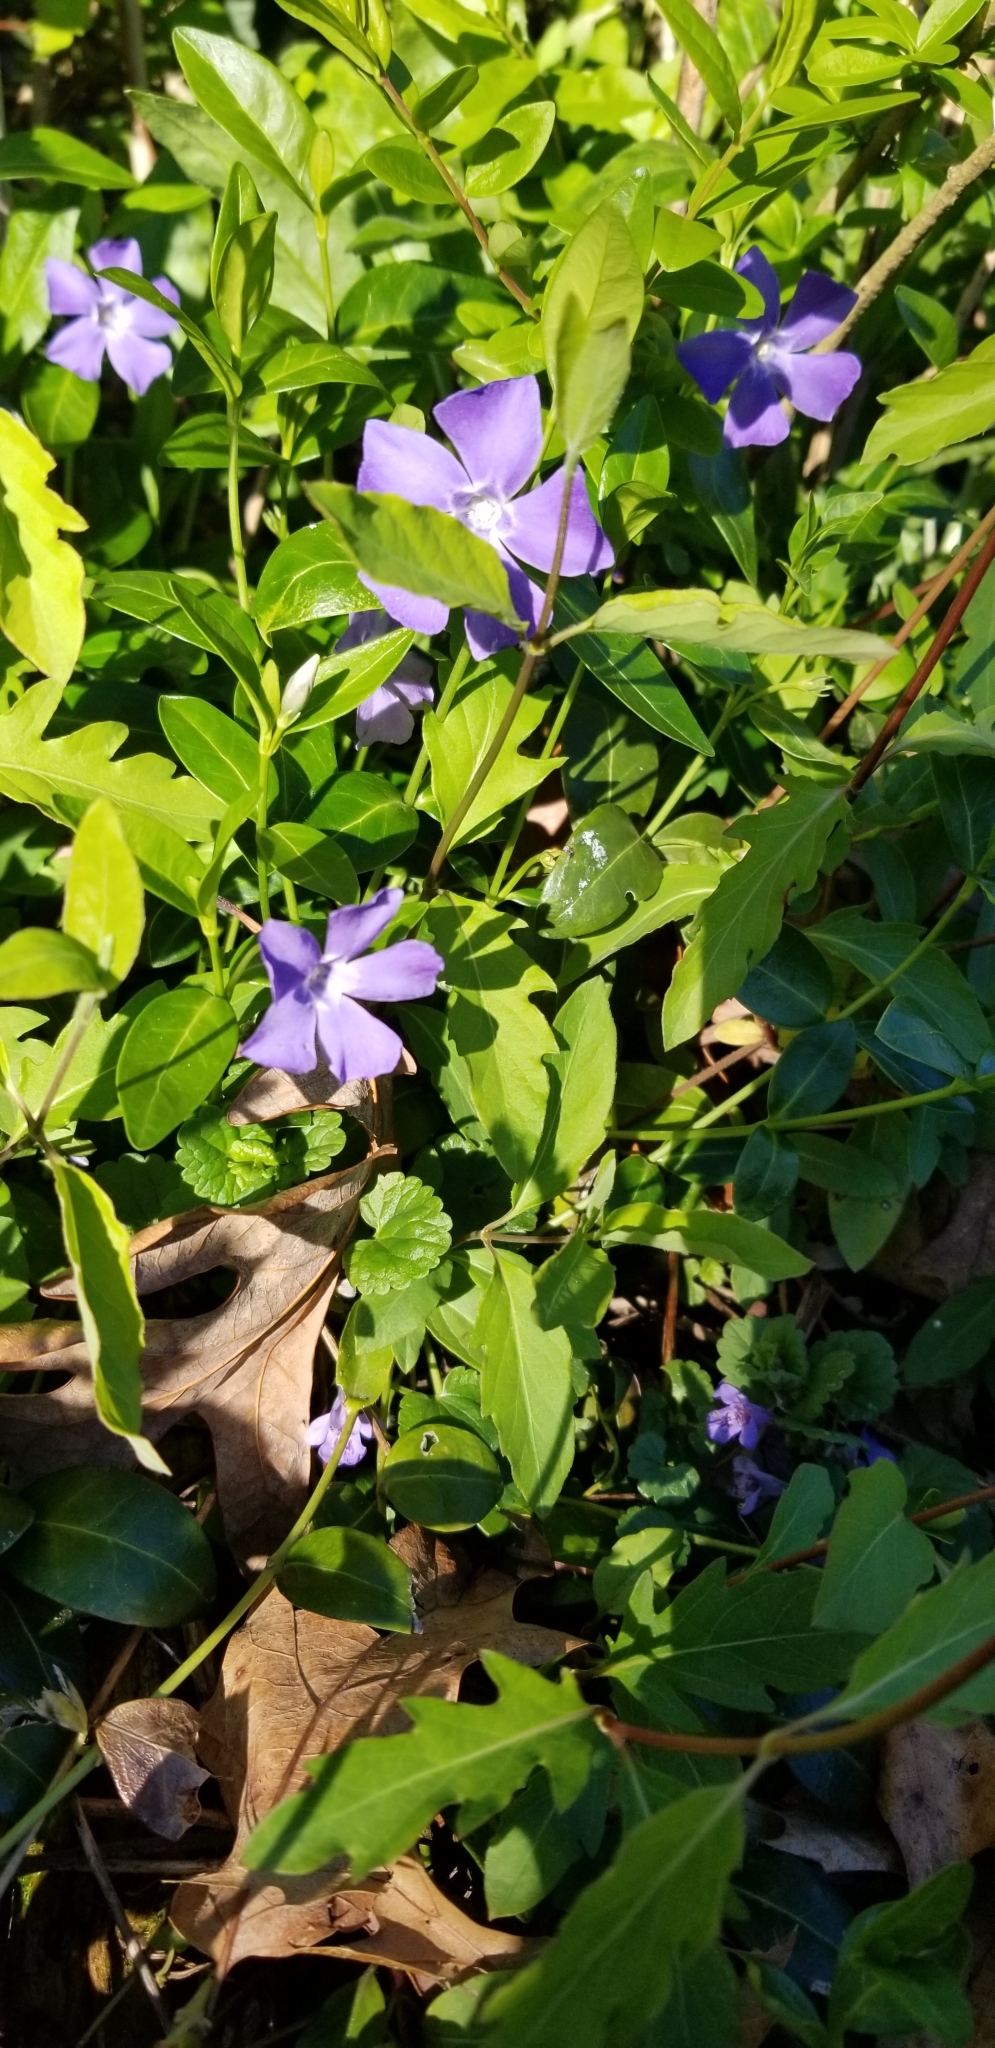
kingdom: Plantae
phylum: Tracheophyta
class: Magnoliopsida
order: Gentianales
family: Apocynaceae
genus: Vinca
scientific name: Vinca minor
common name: Lesser periwinkle
